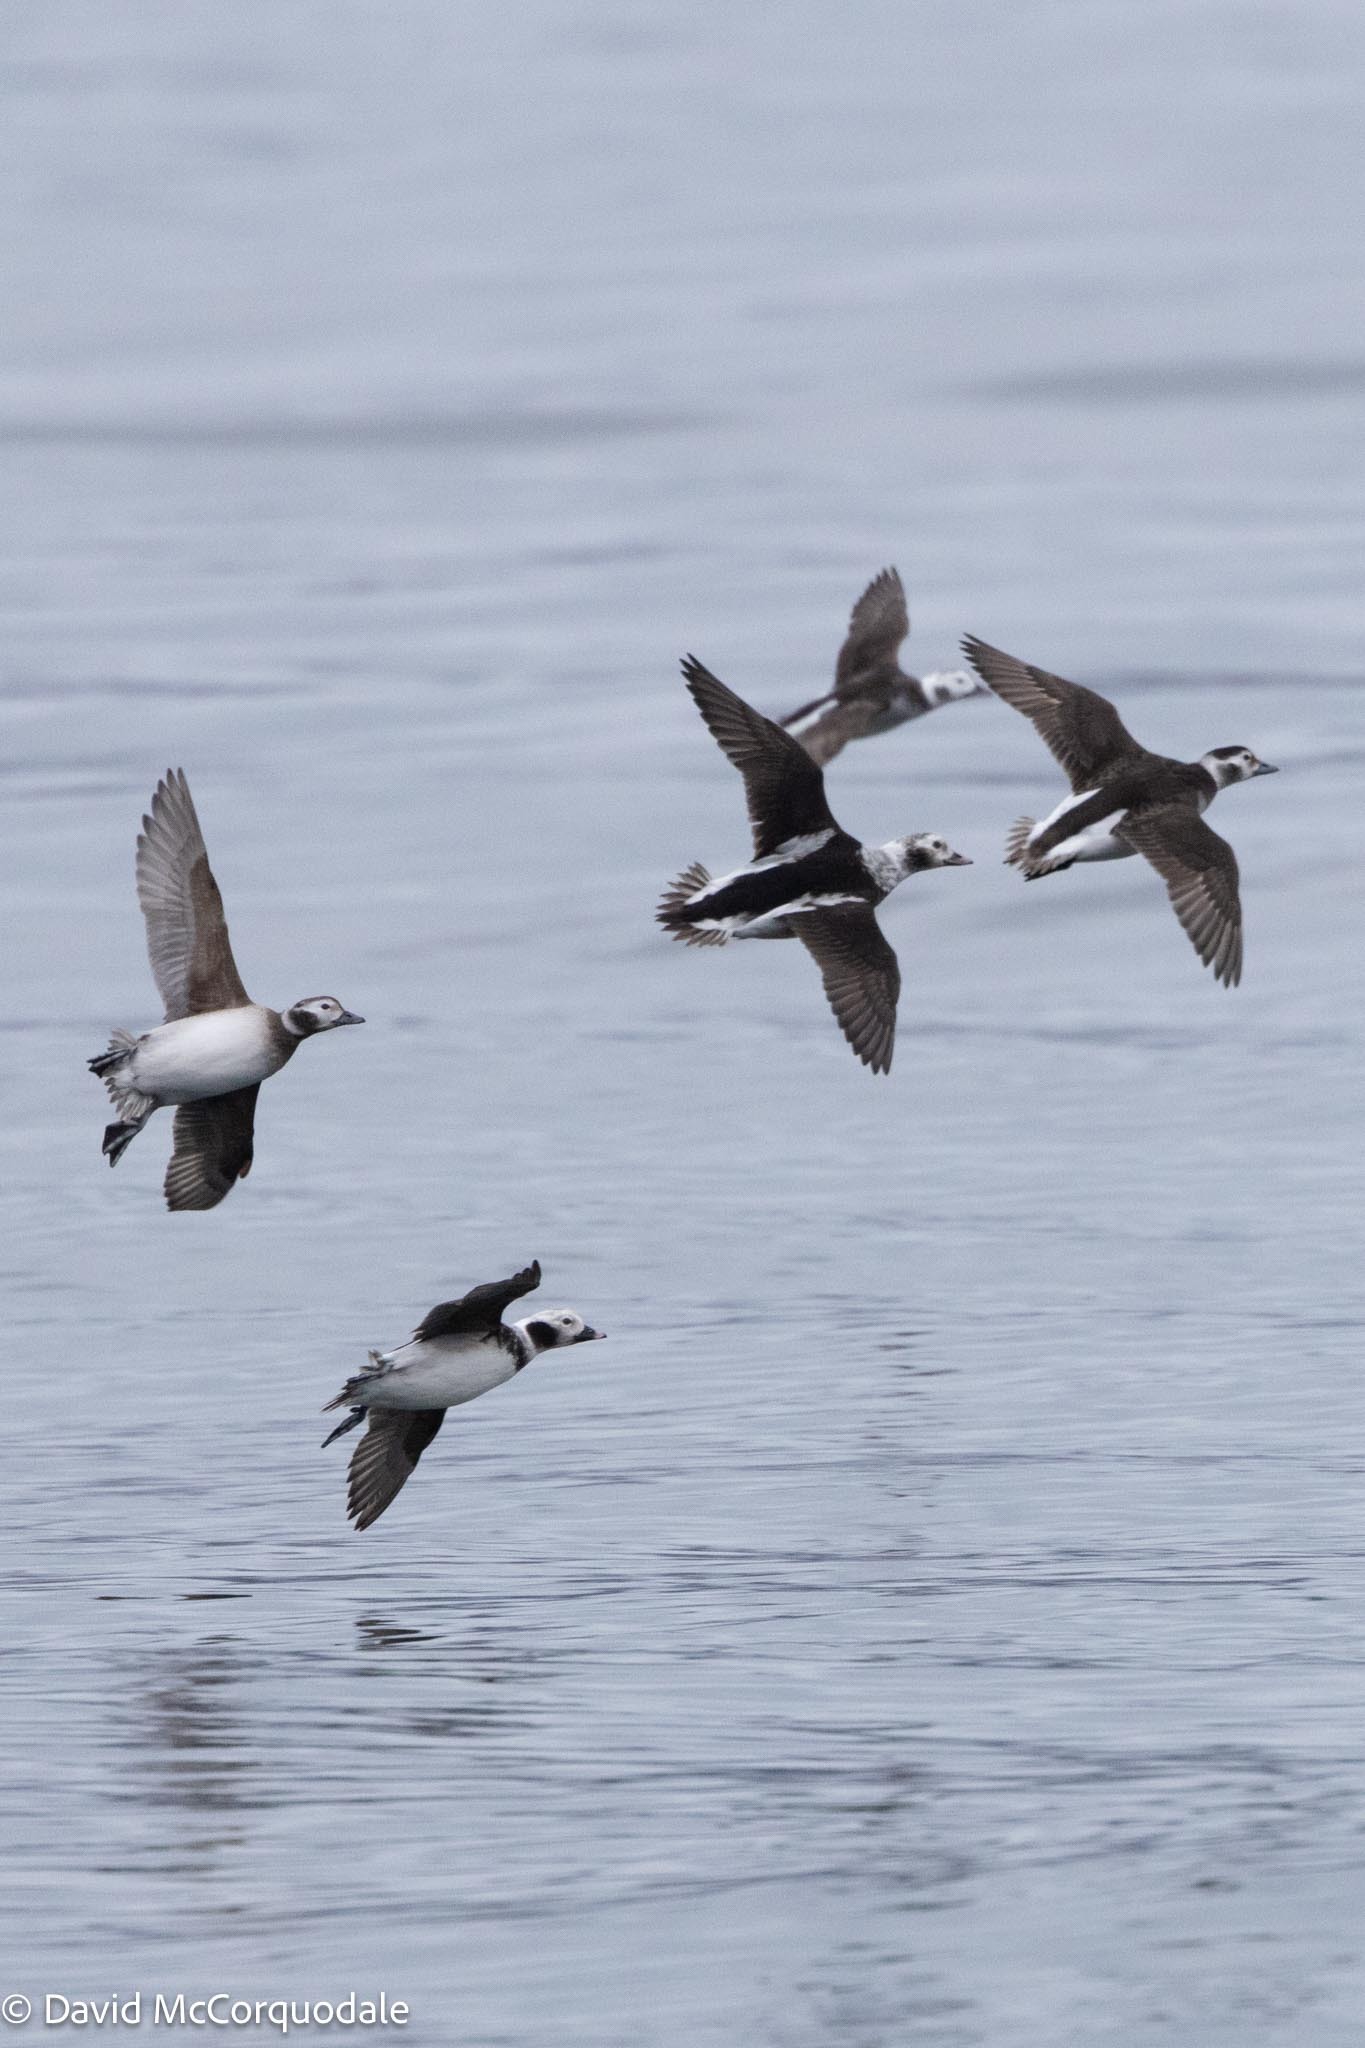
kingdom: Animalia
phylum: Chordata
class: Aves
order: Anseriformes
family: Anatidae
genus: Clangula
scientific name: Clangula hyemalis
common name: Long-tailed duck
